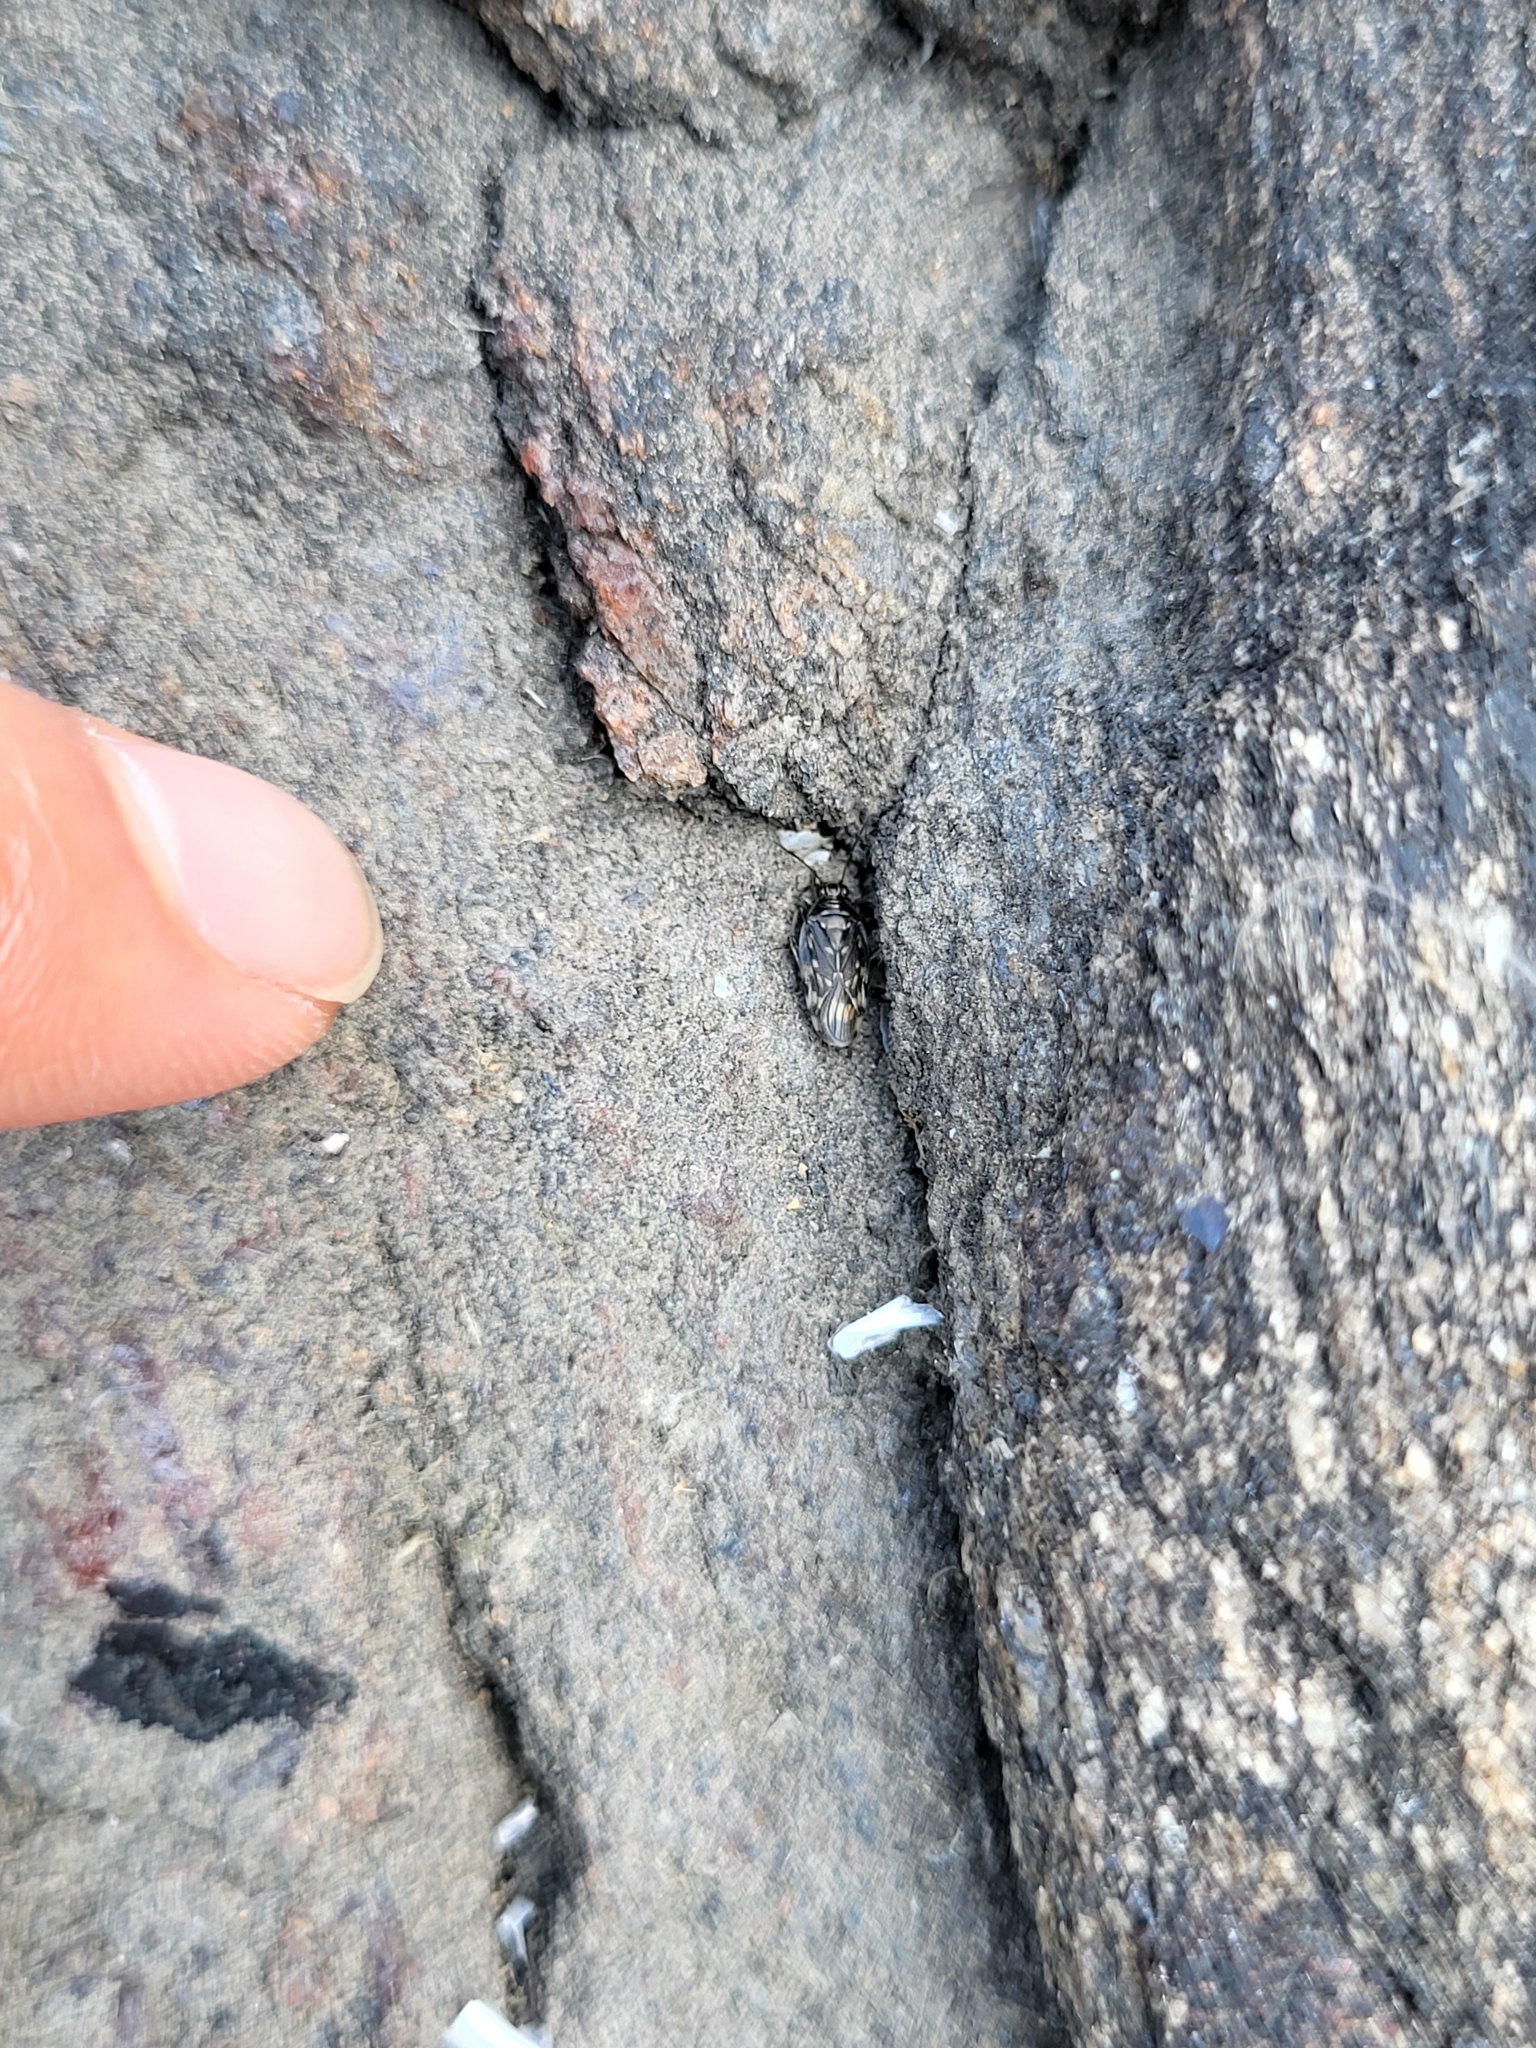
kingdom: Animalia
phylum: Arthropoda
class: Insecta
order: Hemiptera
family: Saldidae
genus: Pentacora
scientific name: Pentacora
